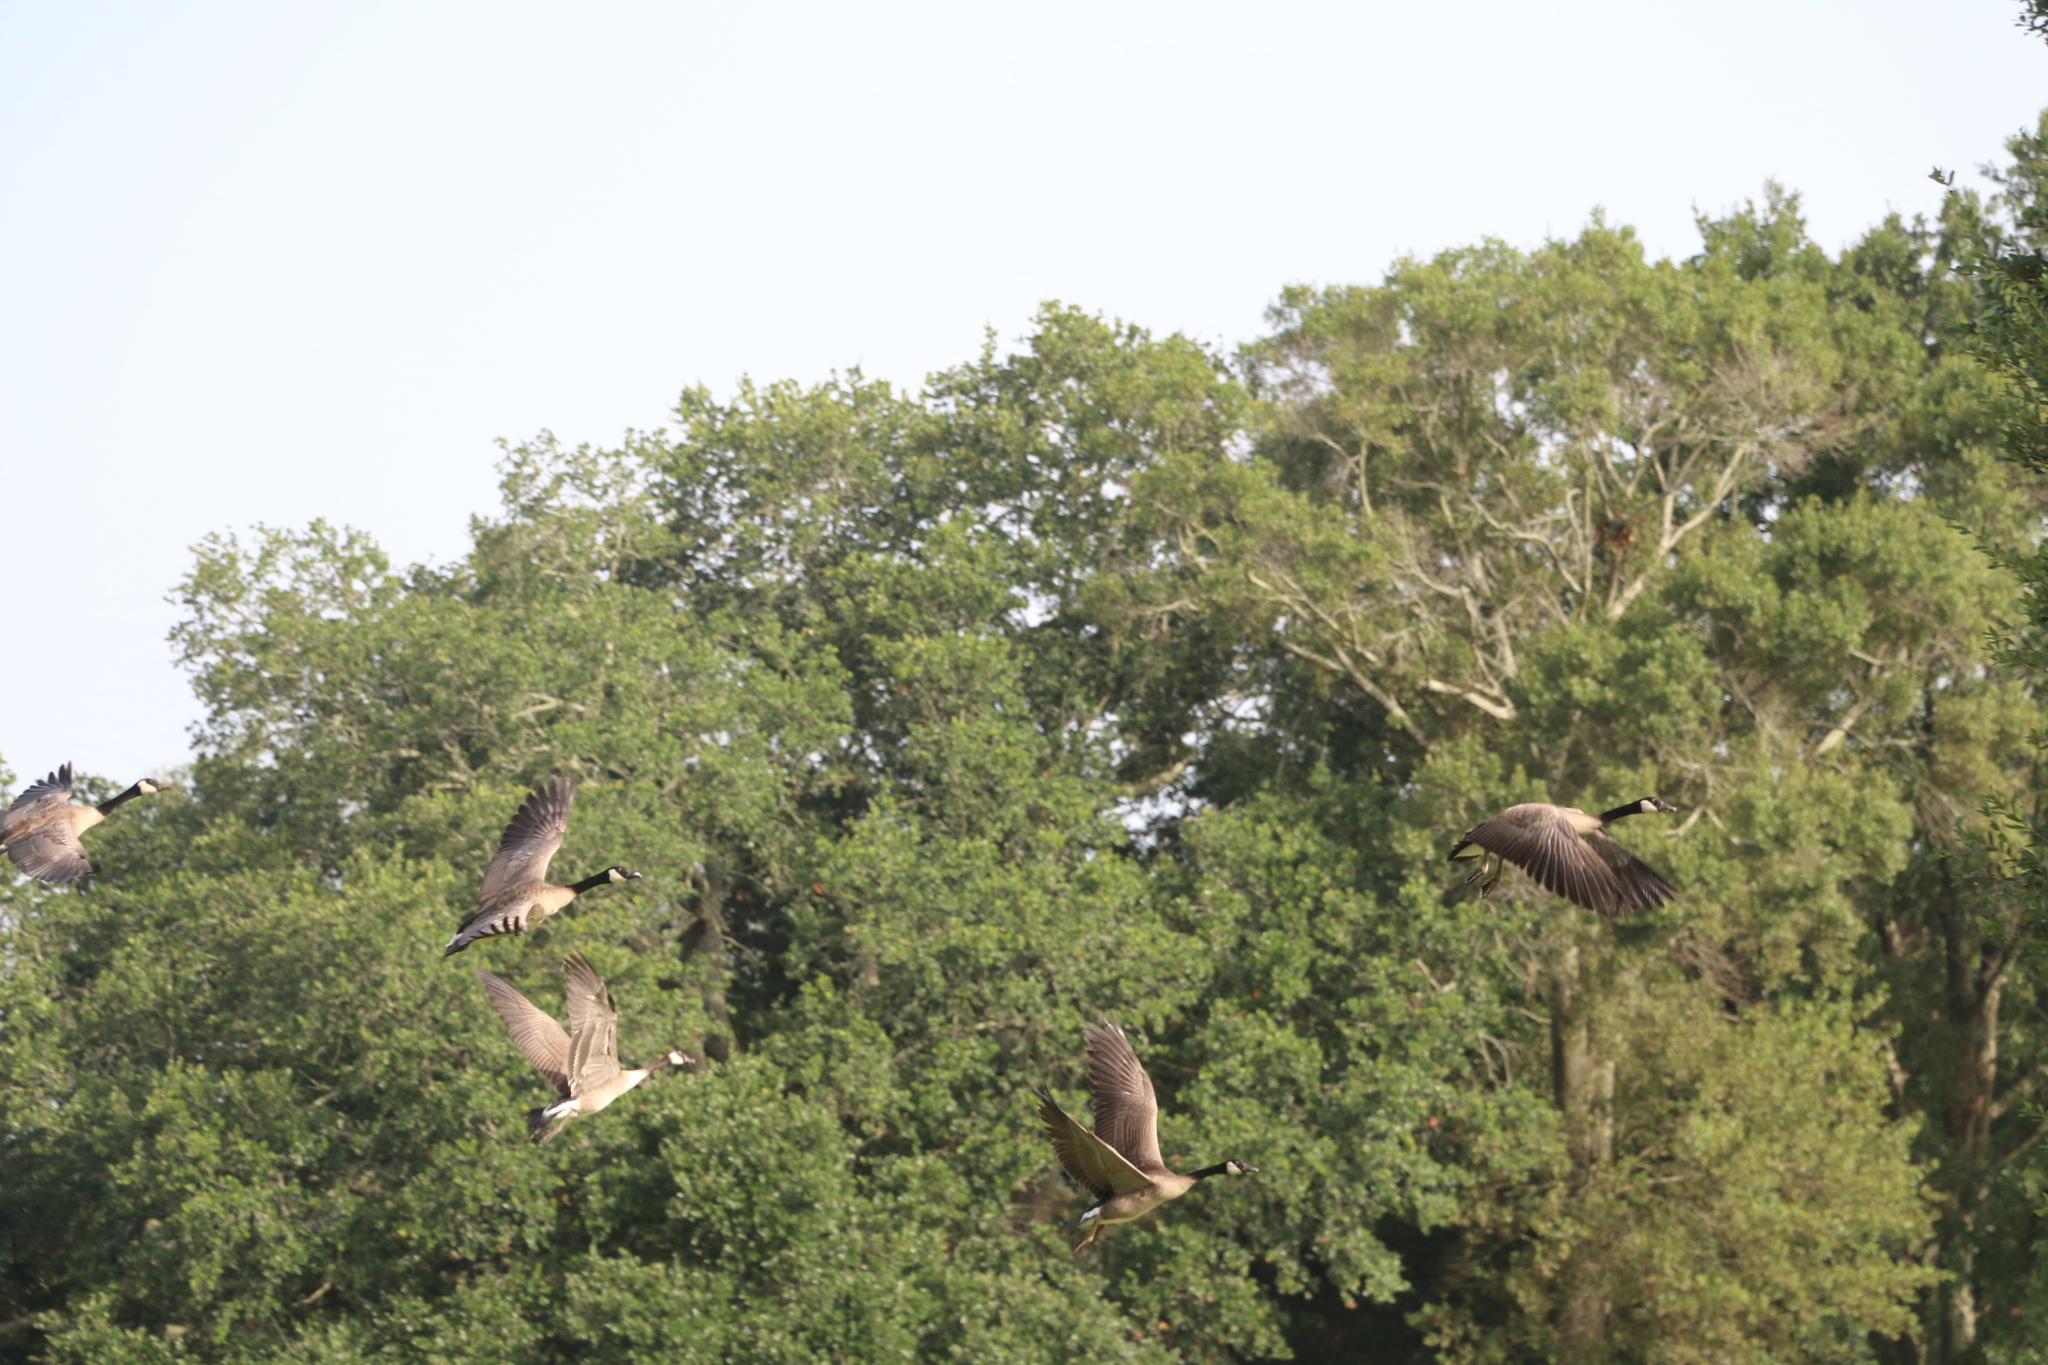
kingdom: Animalia
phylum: Chordata
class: Aves
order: Anseriformes
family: Anatidae
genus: Branta
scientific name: Branta canadensis
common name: Canada goose
